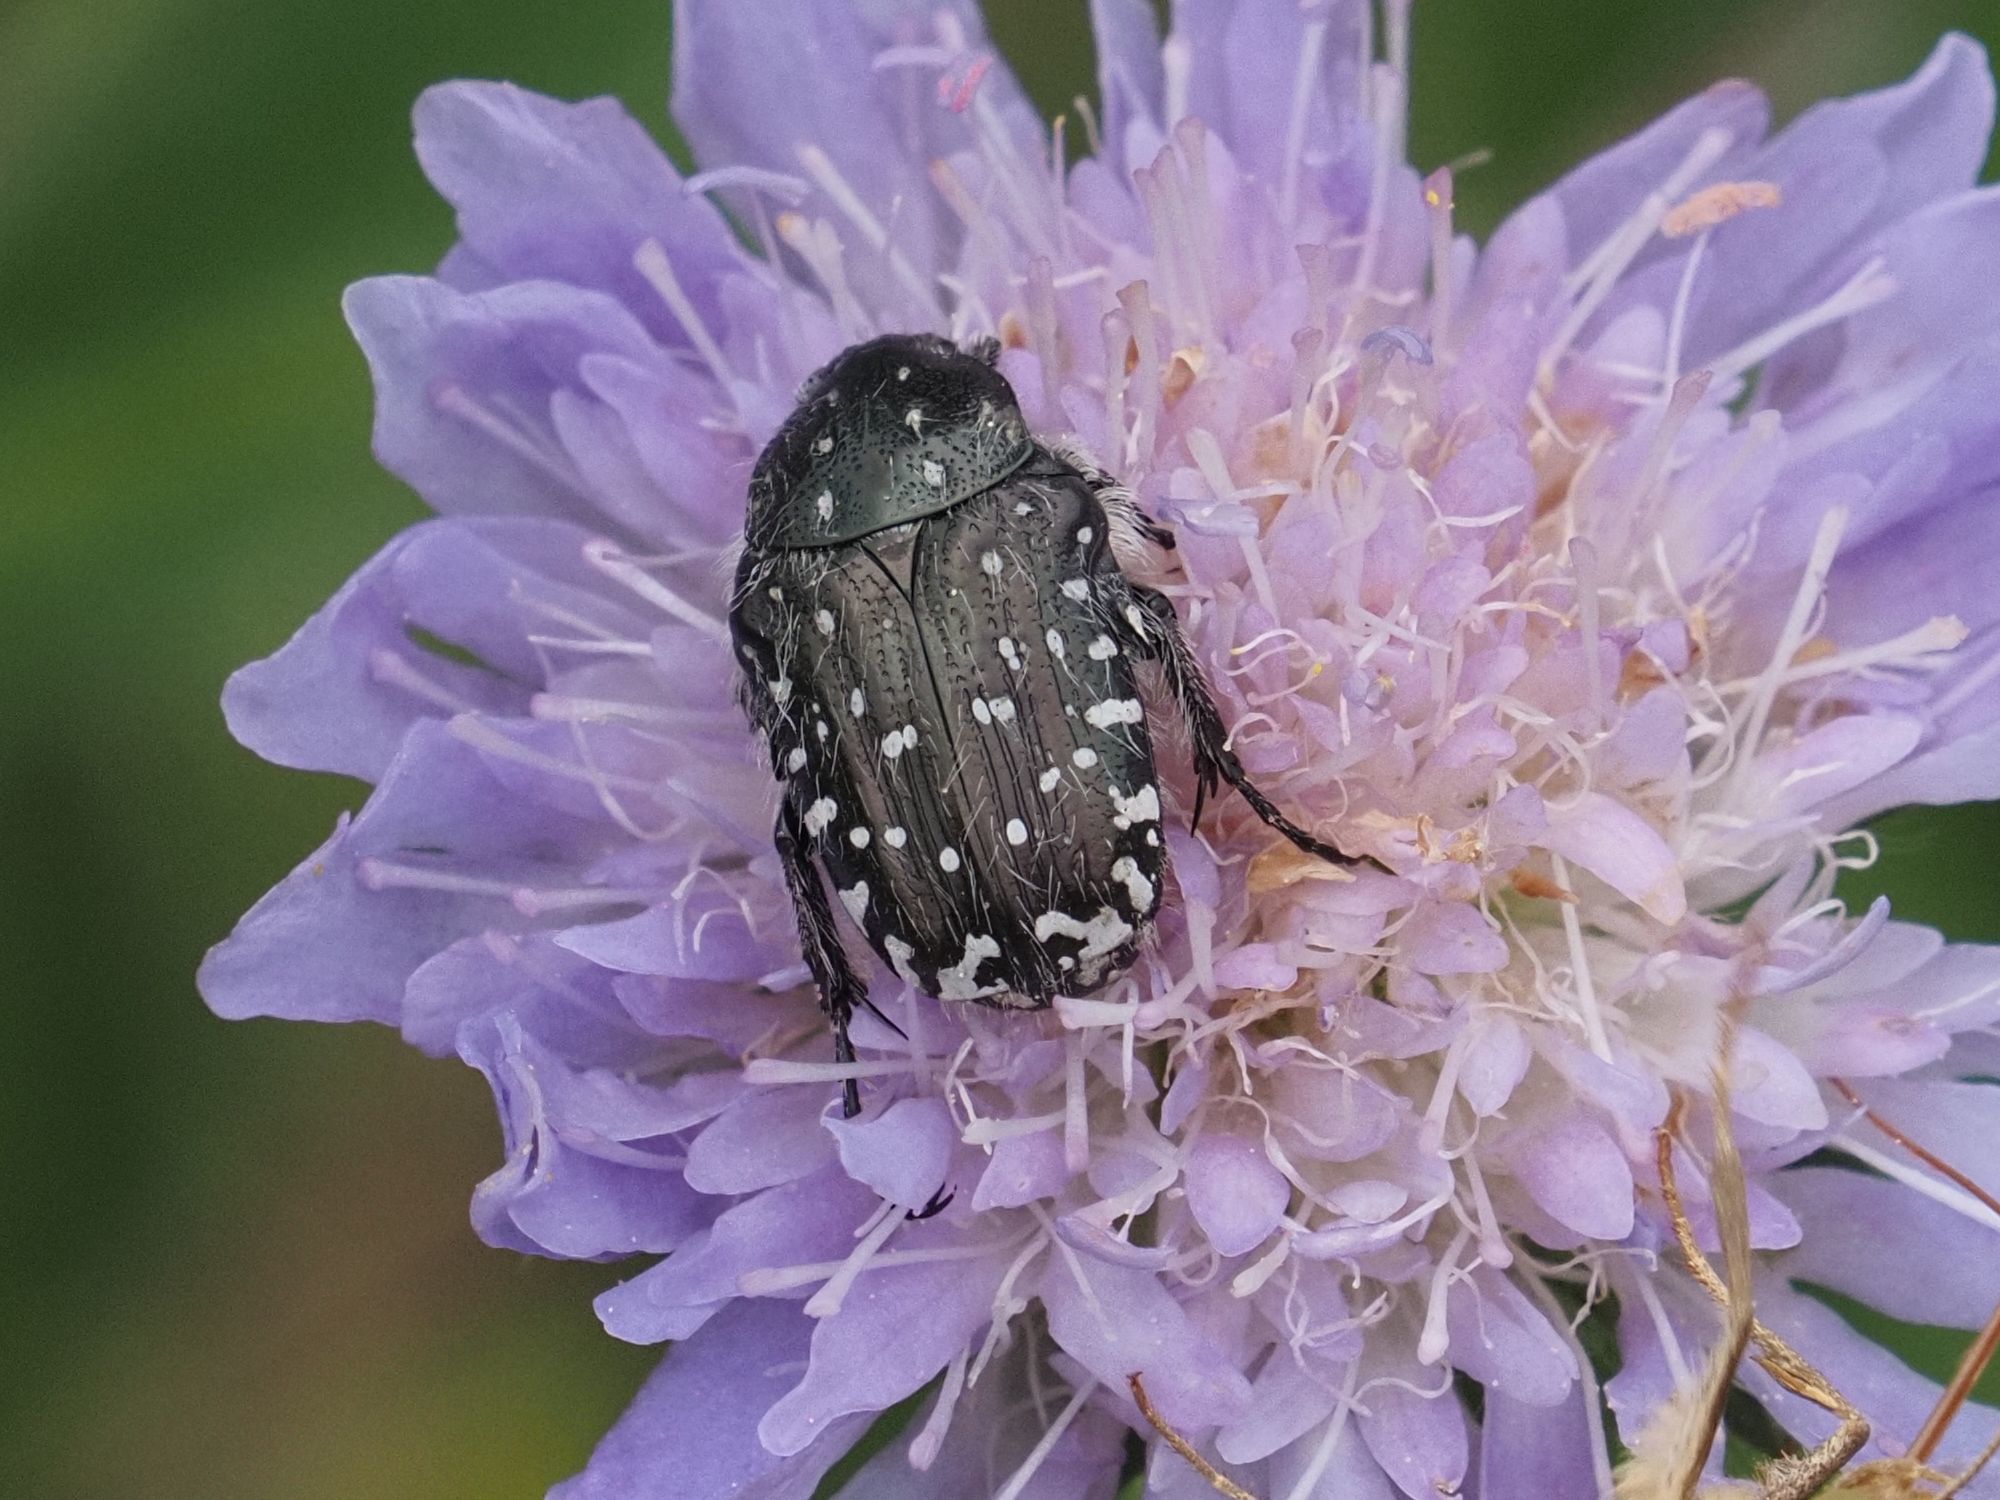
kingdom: Animalia
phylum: Arthropoda
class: Insecta
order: Coleoptera
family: Scarabaeidae
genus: Oxythyrea
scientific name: Oxythyrea funesta
